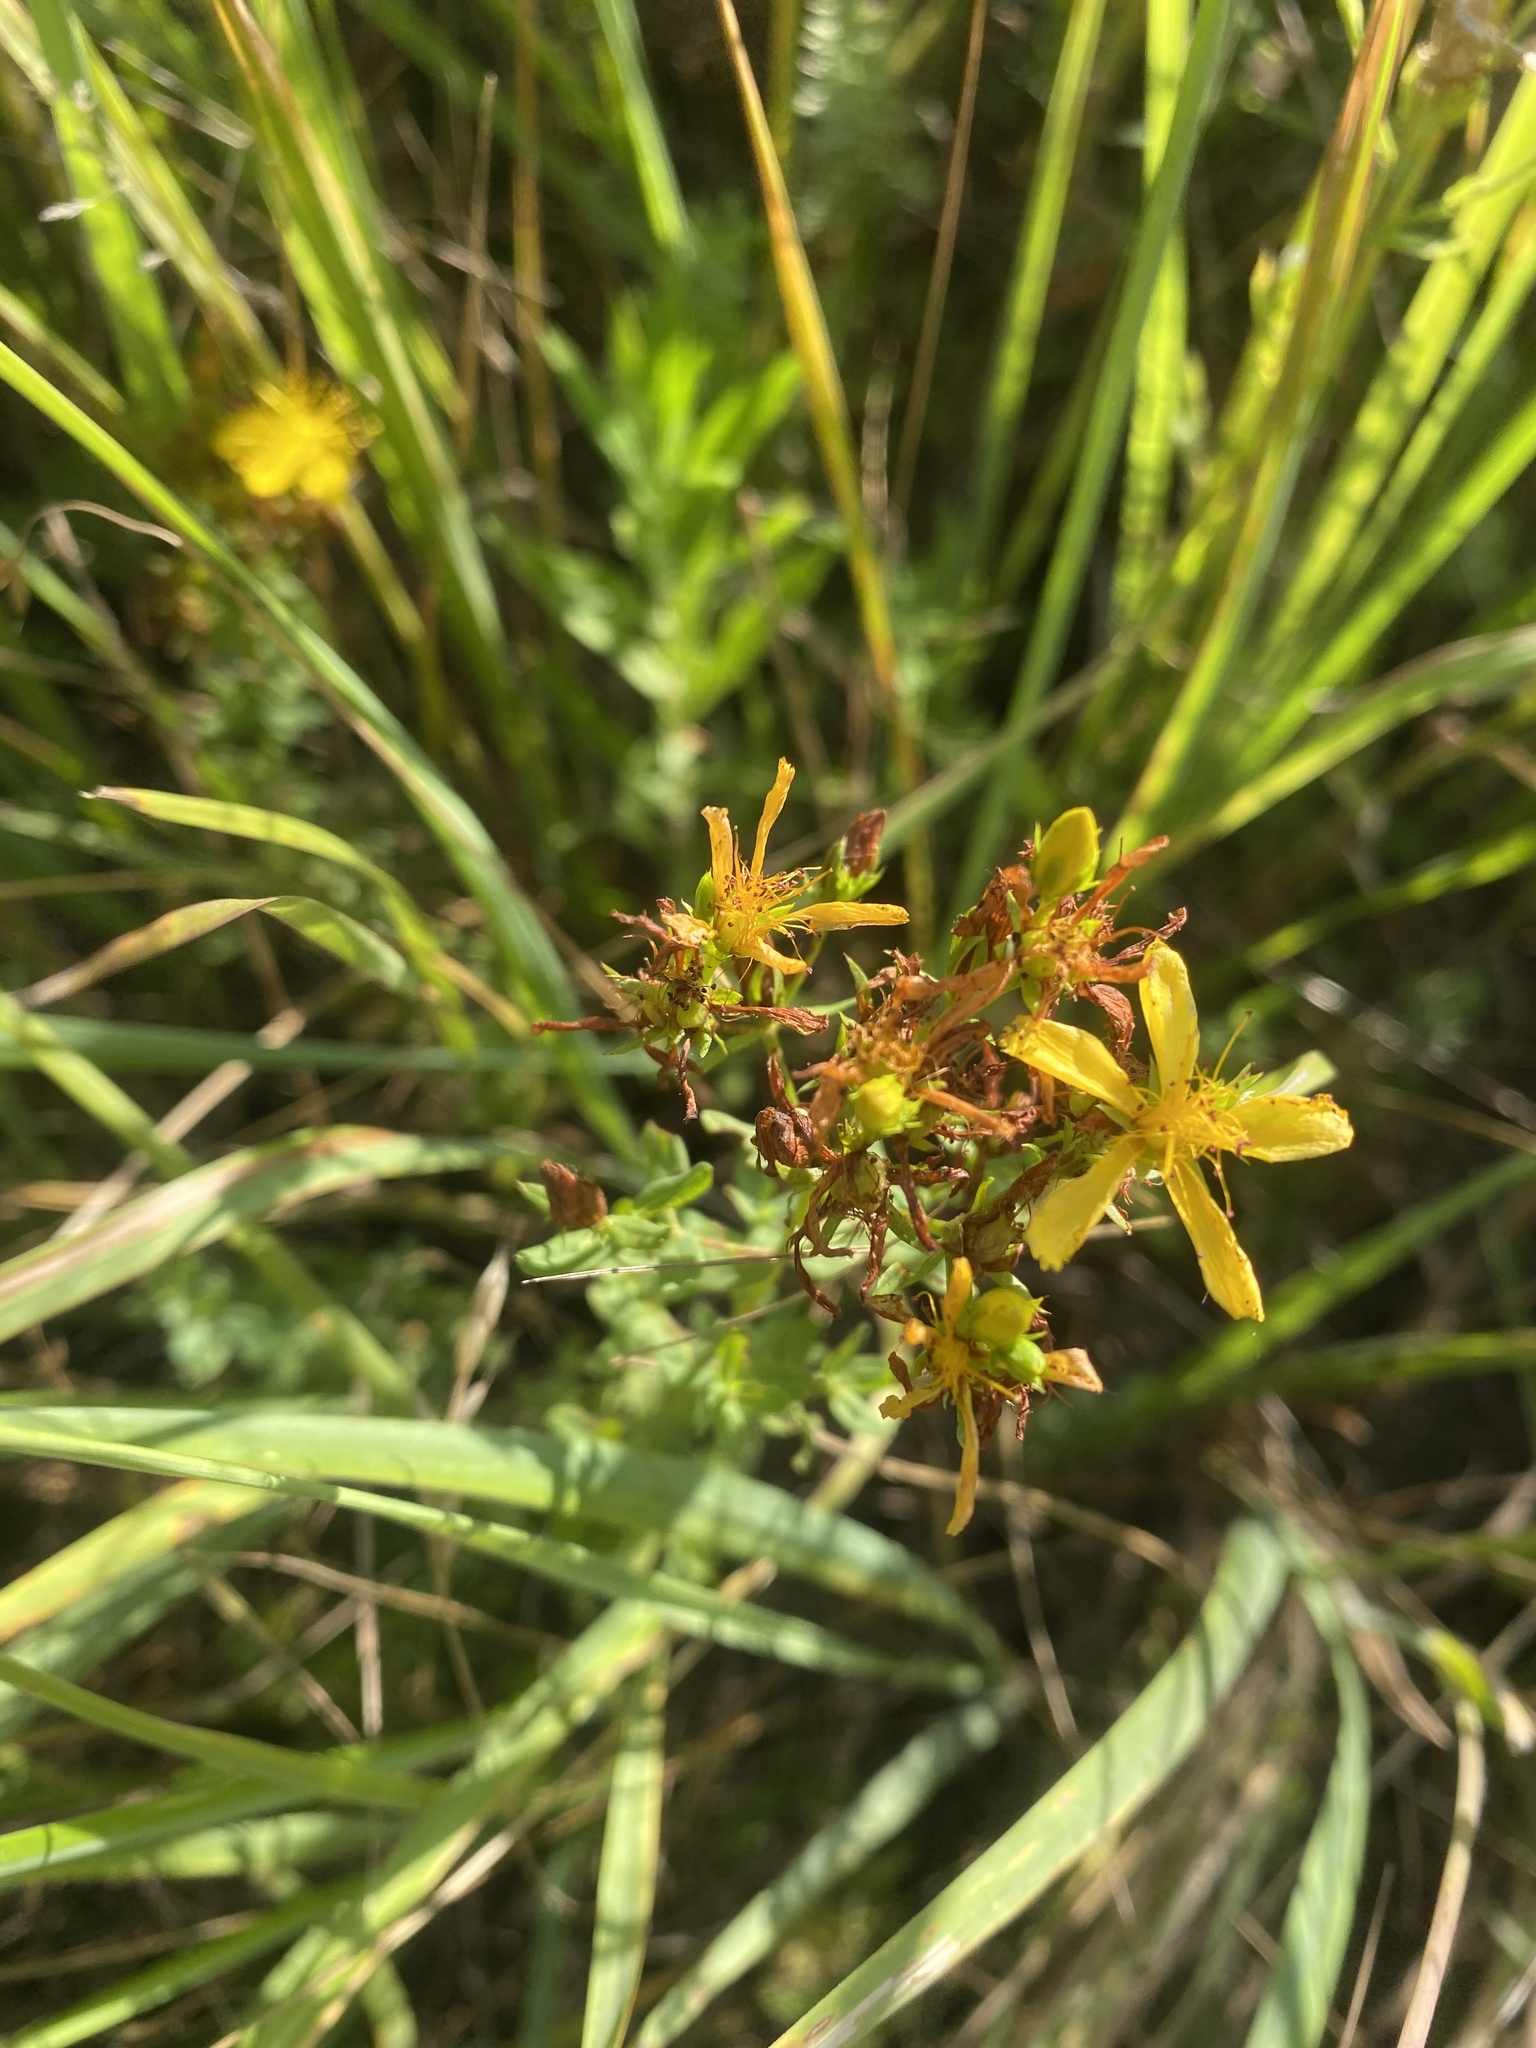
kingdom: Plantae
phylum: Tracheophyta
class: Magnoliopsida
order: Malpighiales
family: Hypericaceae
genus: Hypericum
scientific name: Hypericum perforatum
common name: Common st. johnswort
